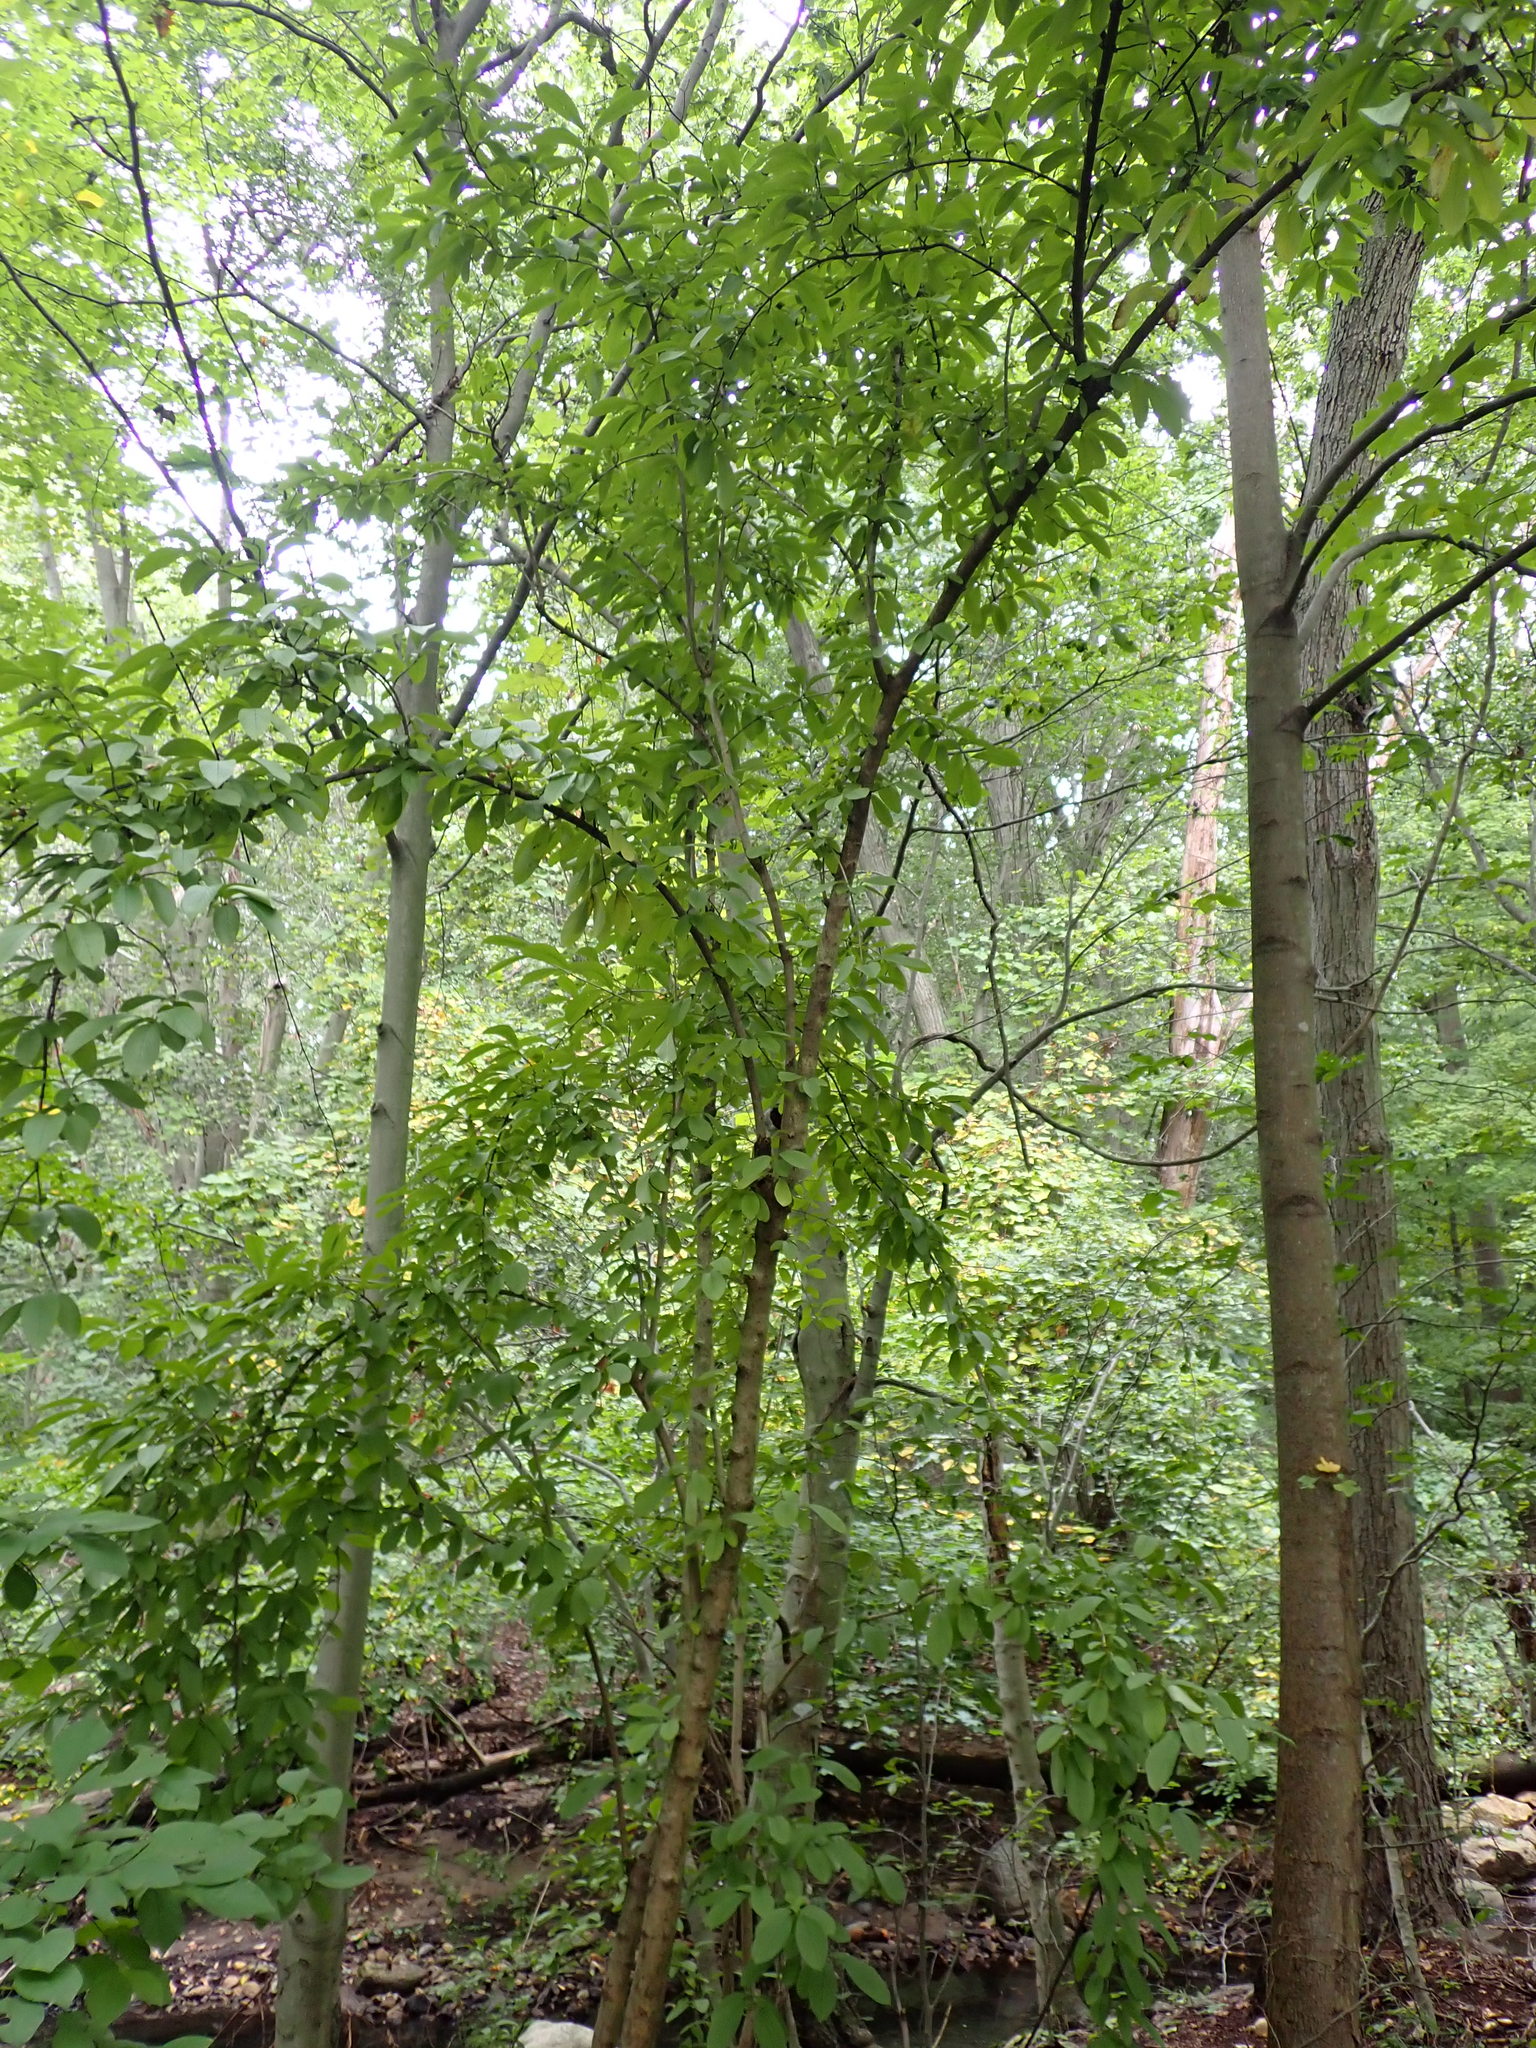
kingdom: Plantae
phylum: Tracheophyta
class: Magnoliopsida
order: Dipsacales
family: Viburnaceae
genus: Viburnum
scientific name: Viburnum sieboldii
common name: Siebold's arrowwood
